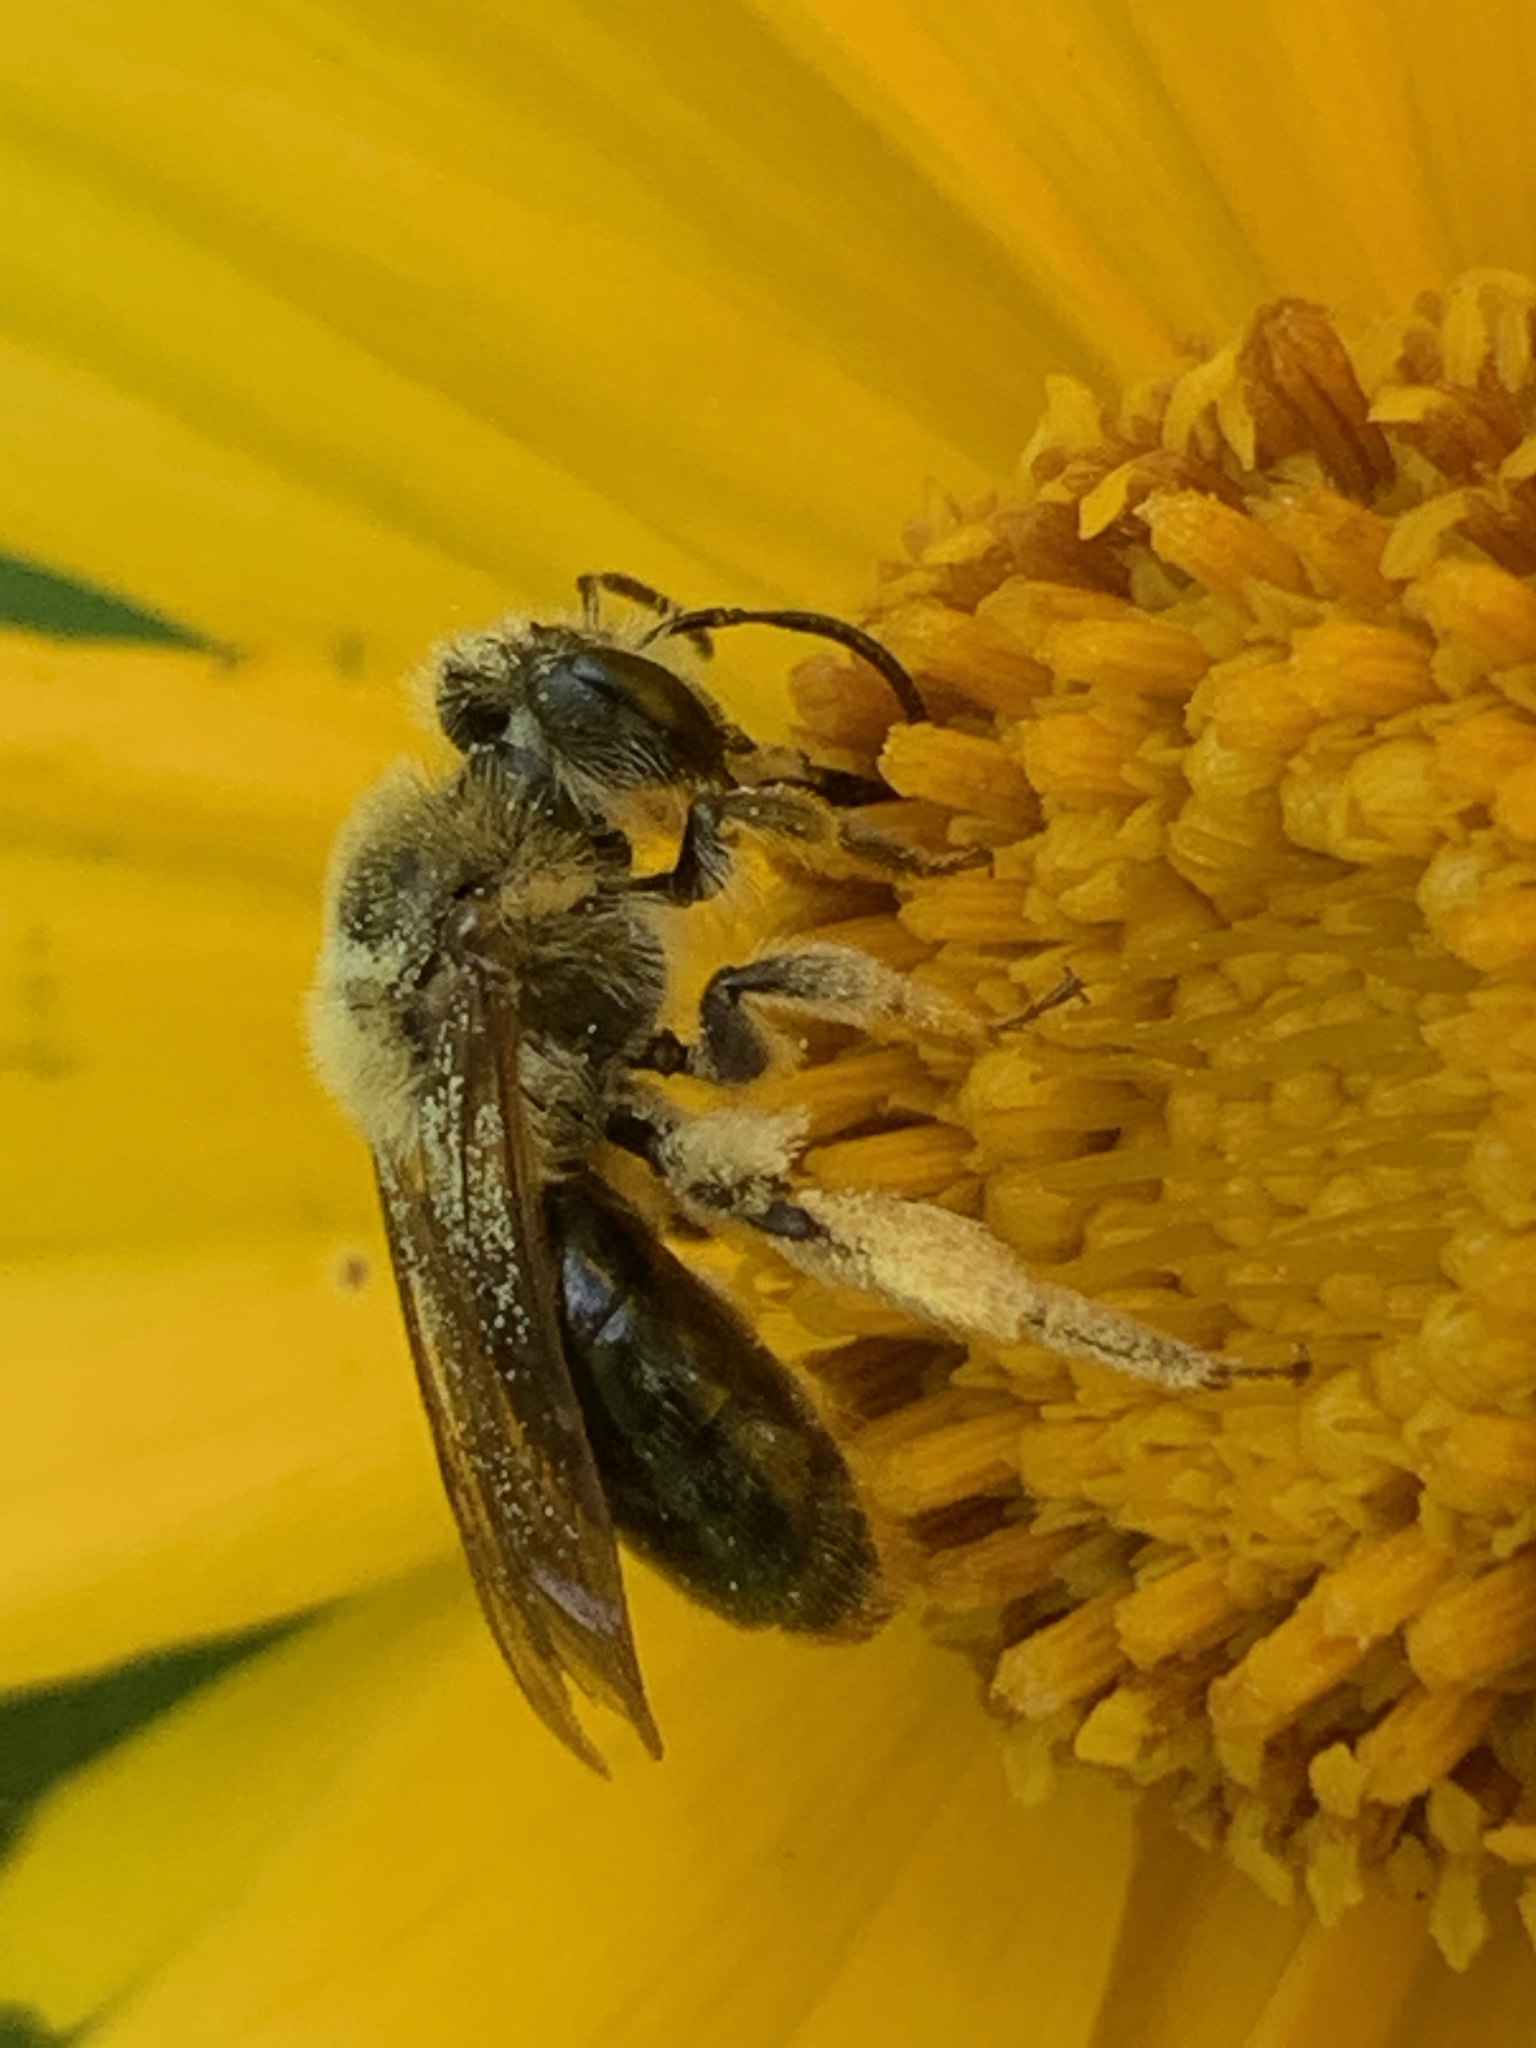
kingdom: Animalia
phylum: Arthropoda
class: Insecta
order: Hymenoptera
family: Andrenidae
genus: Andrena
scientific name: Andrena
